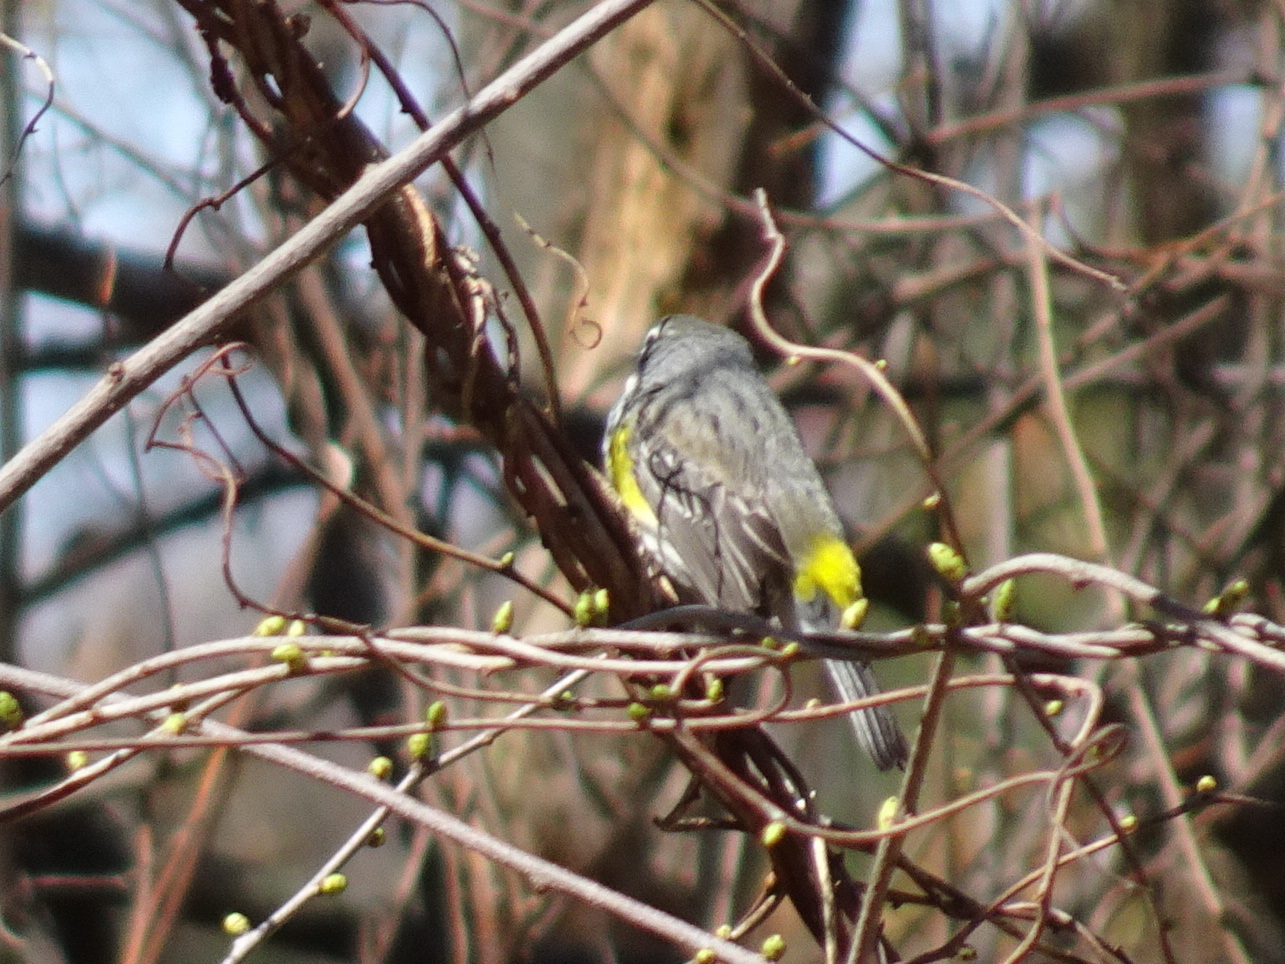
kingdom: Animalia
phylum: Chordata
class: Aves
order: Passeriformes
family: Parulidae
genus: Setophaga
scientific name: Setophaga coronata
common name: Myrtle warbler
